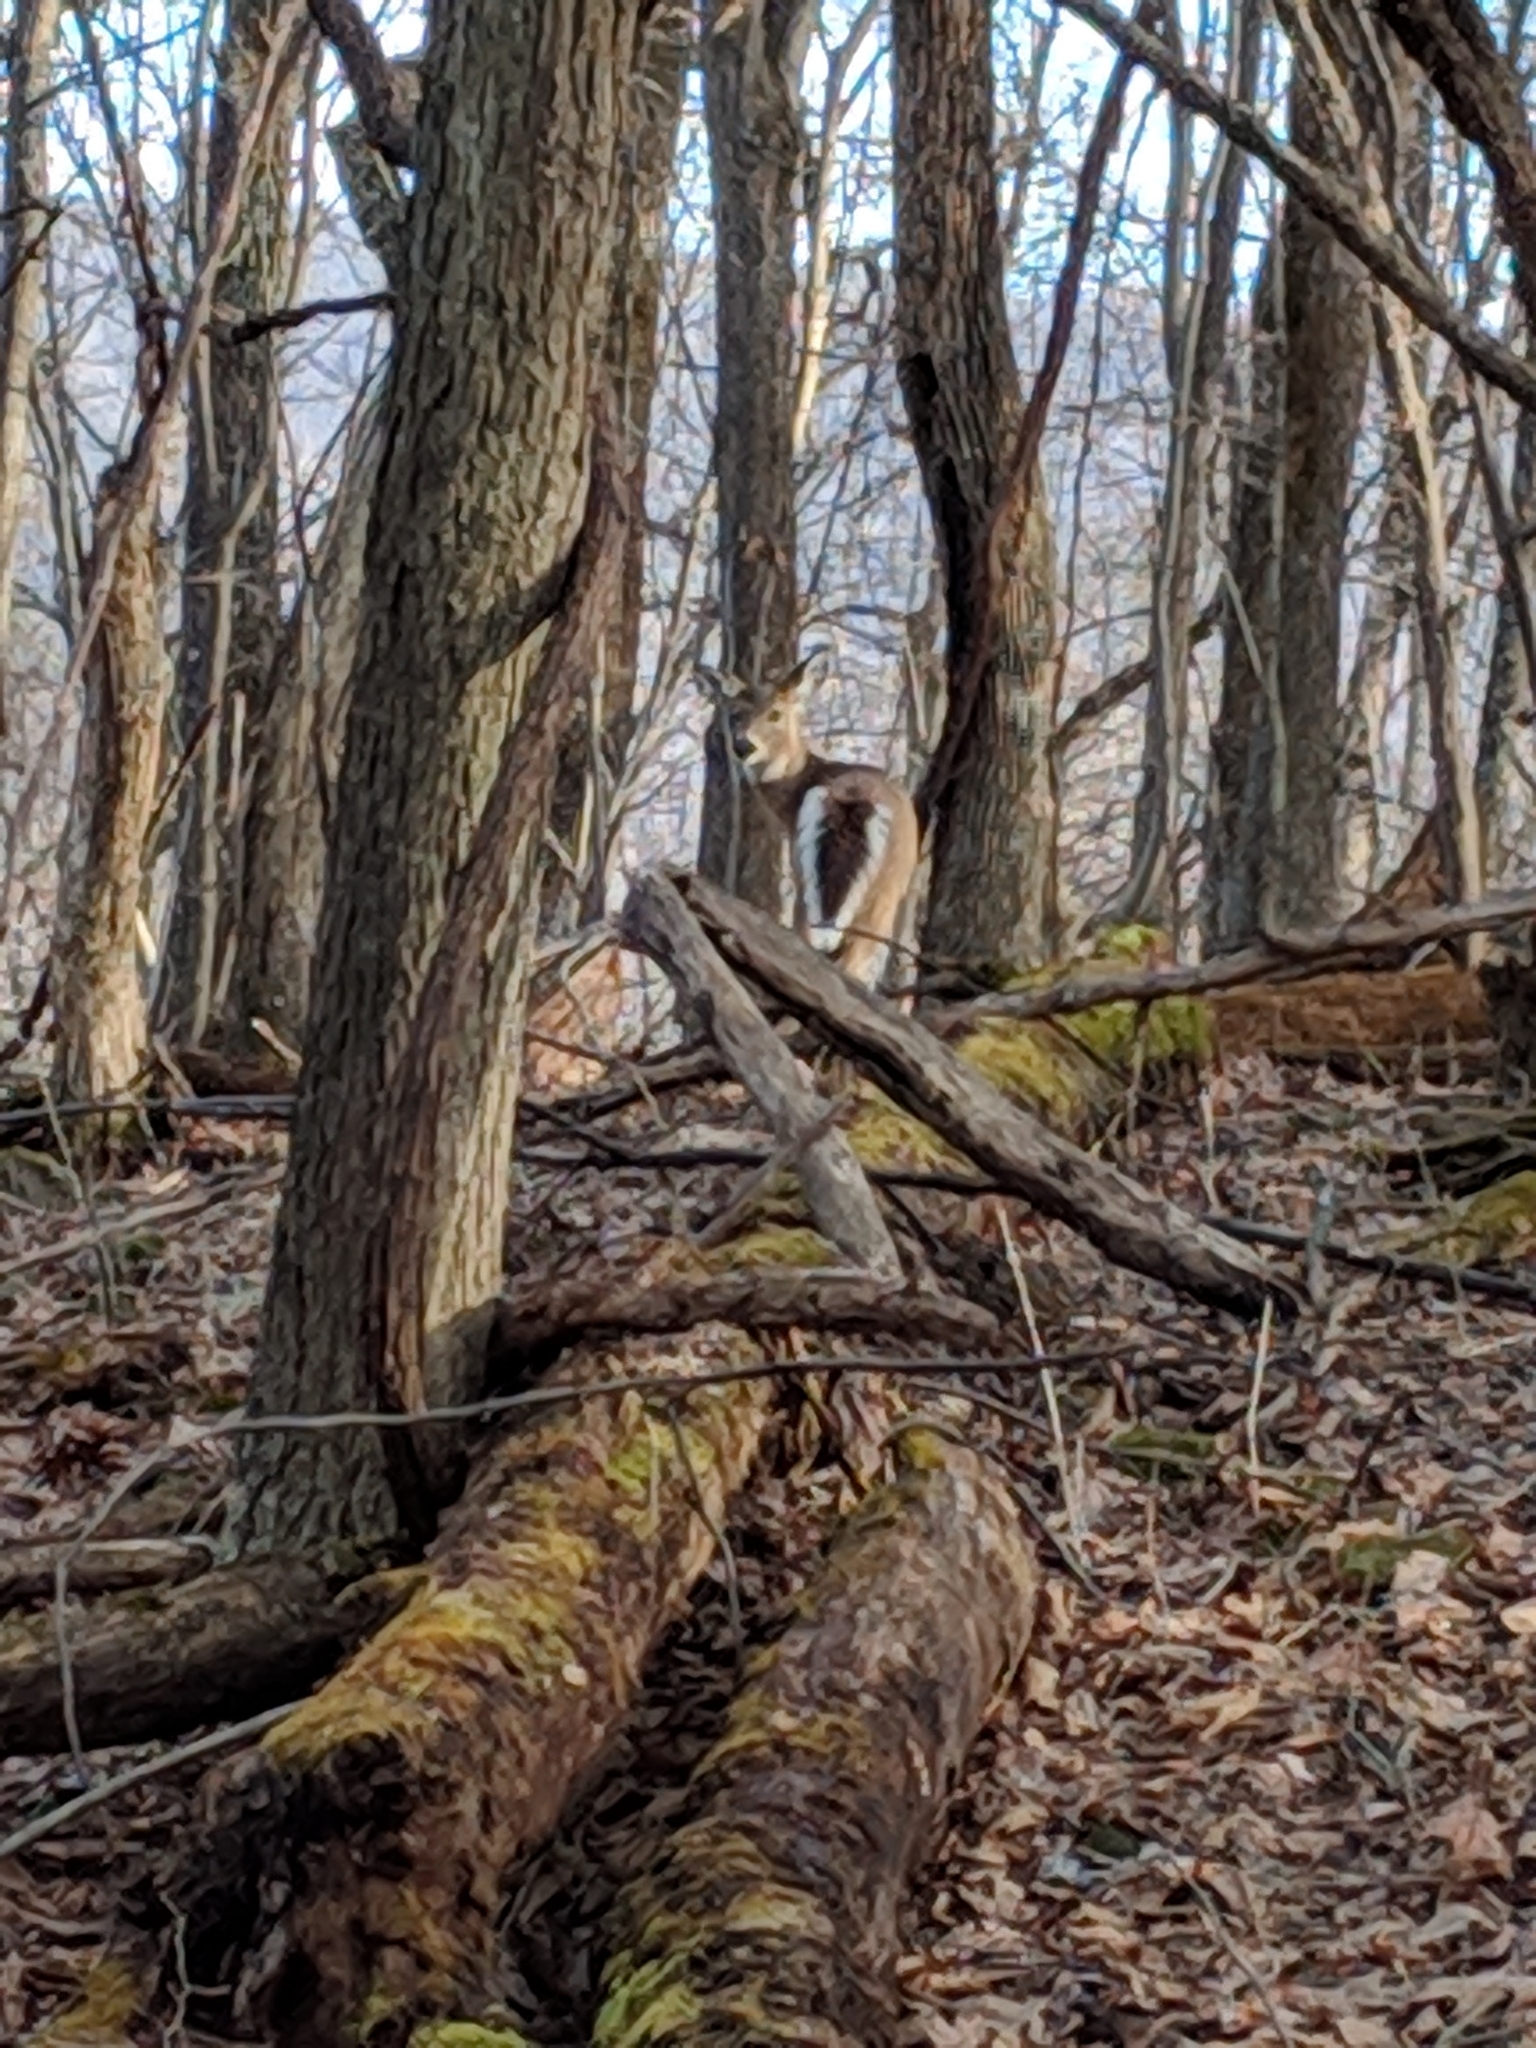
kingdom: Animalia
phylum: Chordata
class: Mammalia
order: Artiodactyla
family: Cervidae
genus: Odocoileus
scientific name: Odocoileus virginianus
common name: White-tailed deer
